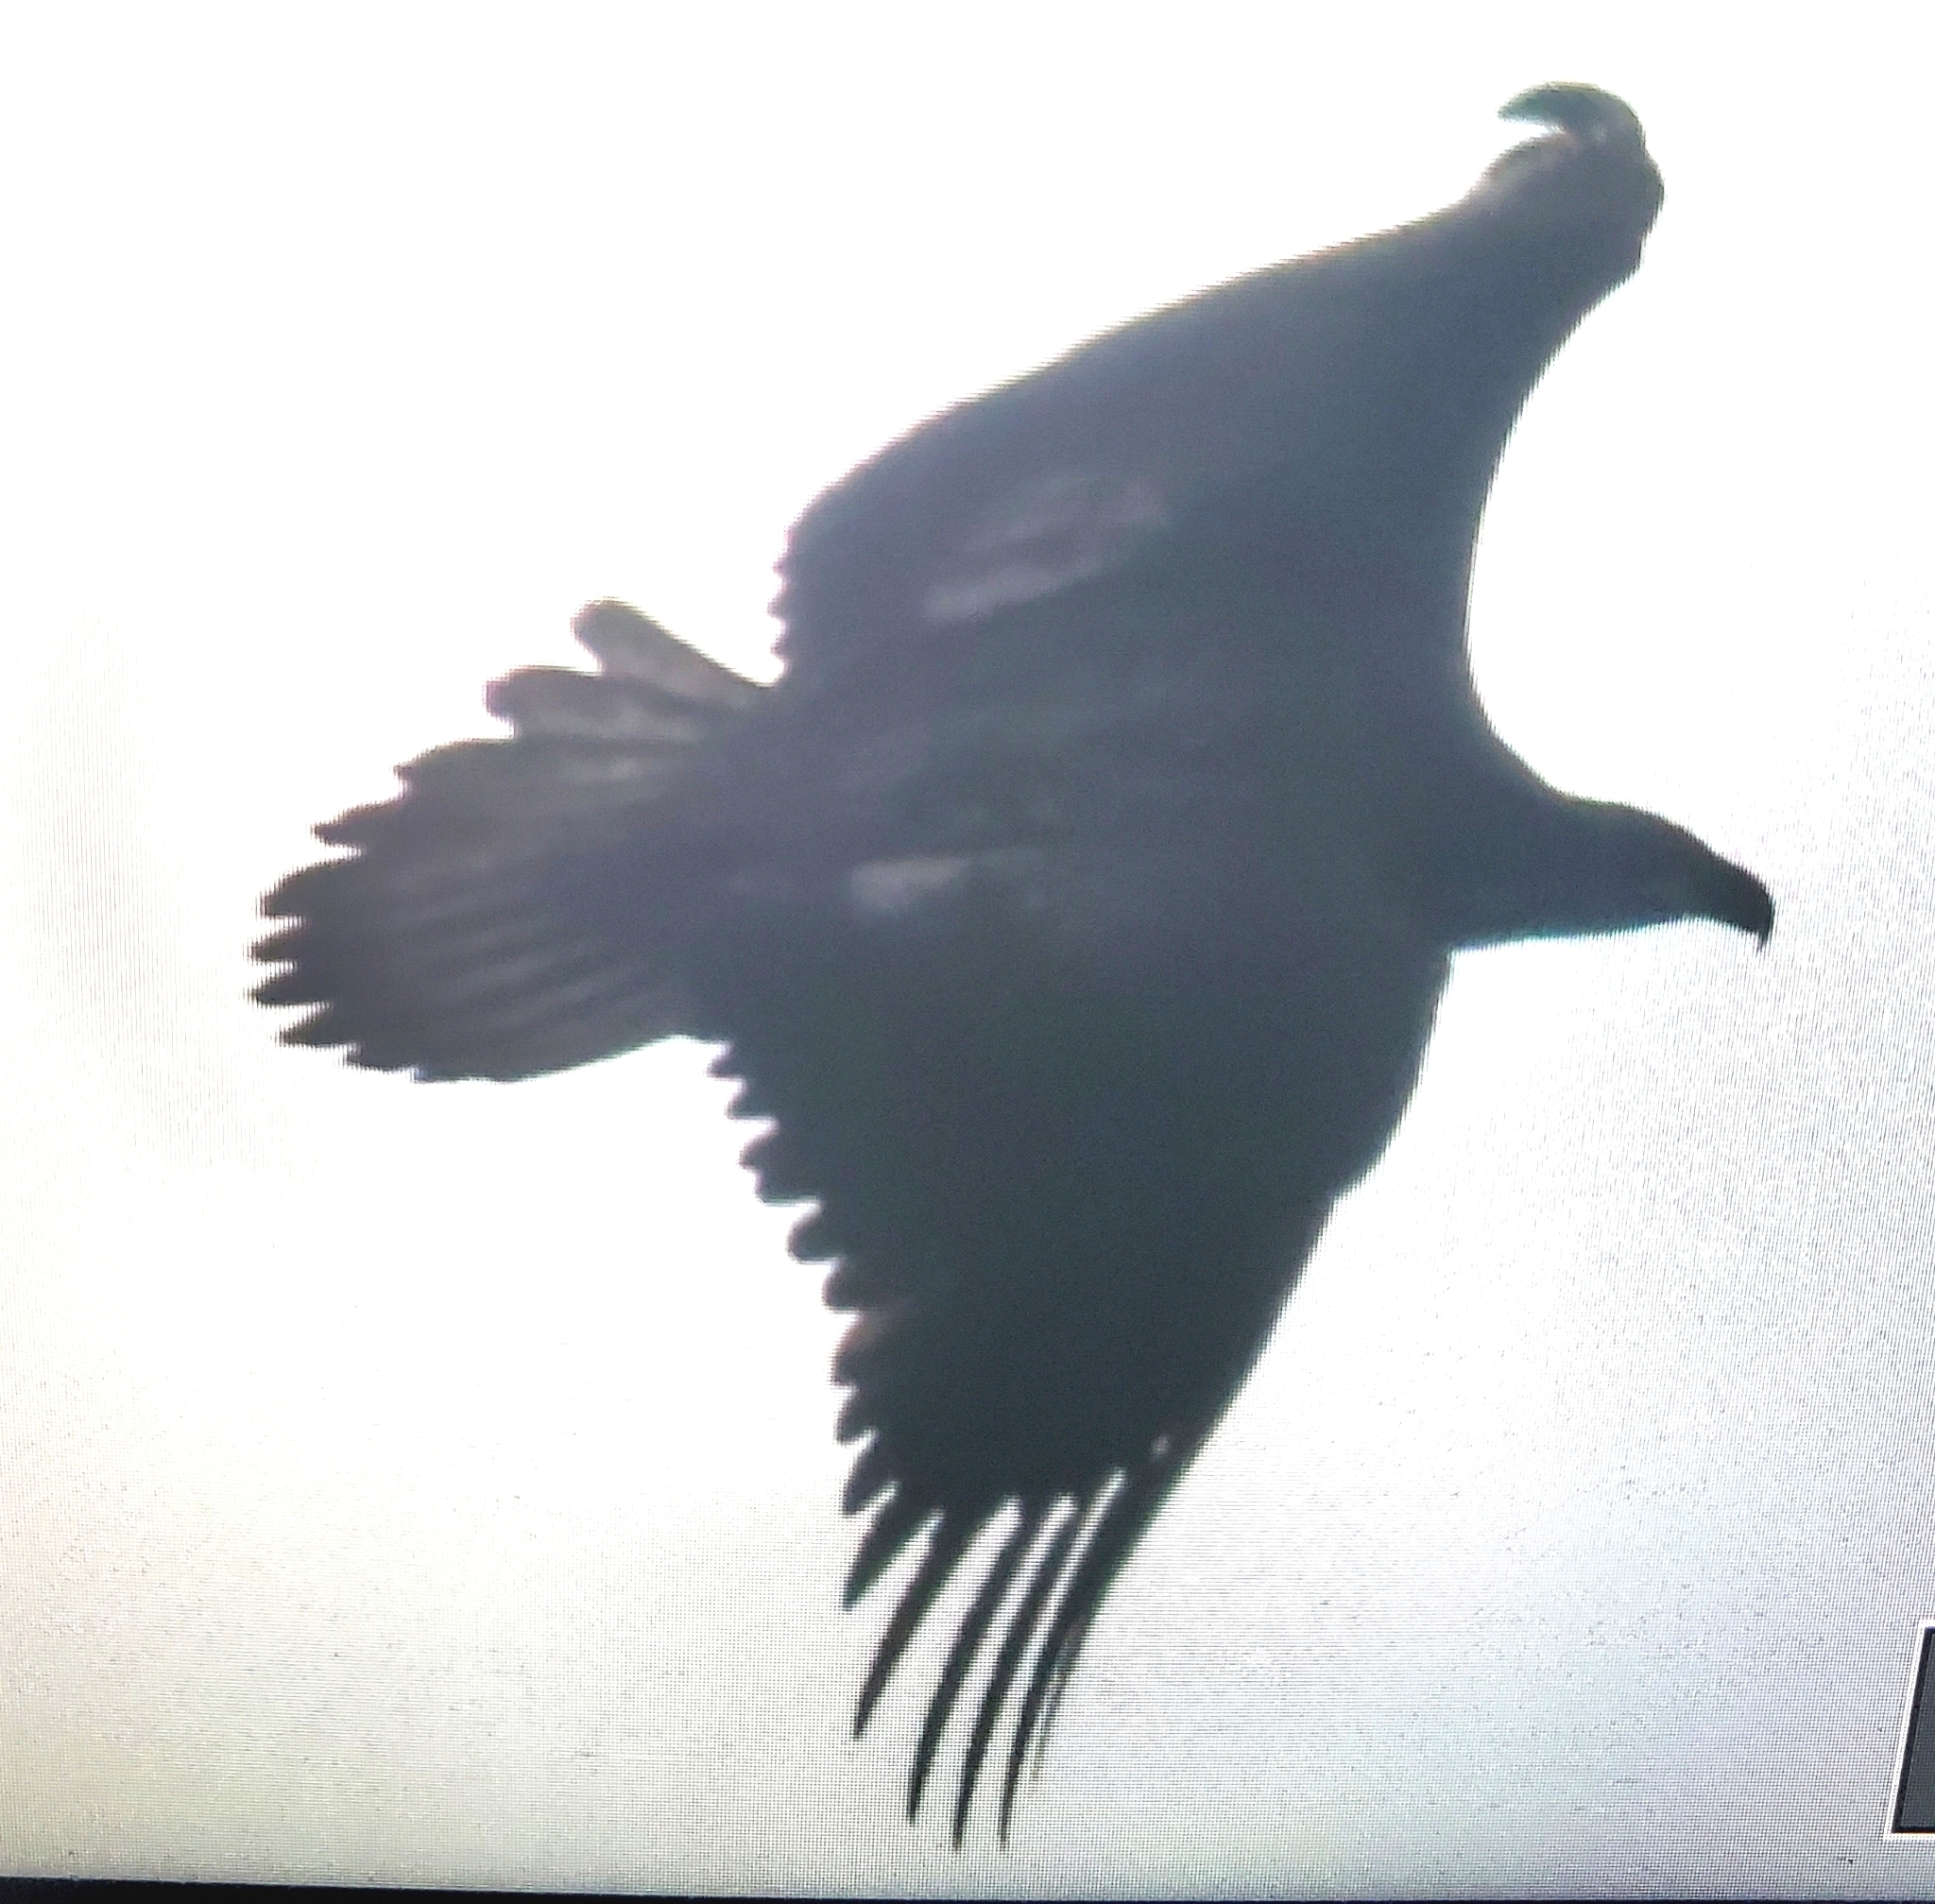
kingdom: Animalia
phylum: Chordata
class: Aves
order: Accipitriformes
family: Accipitridae
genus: Haliaeetus
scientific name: Haliaeetus leucocephalus
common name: Bald eagle
